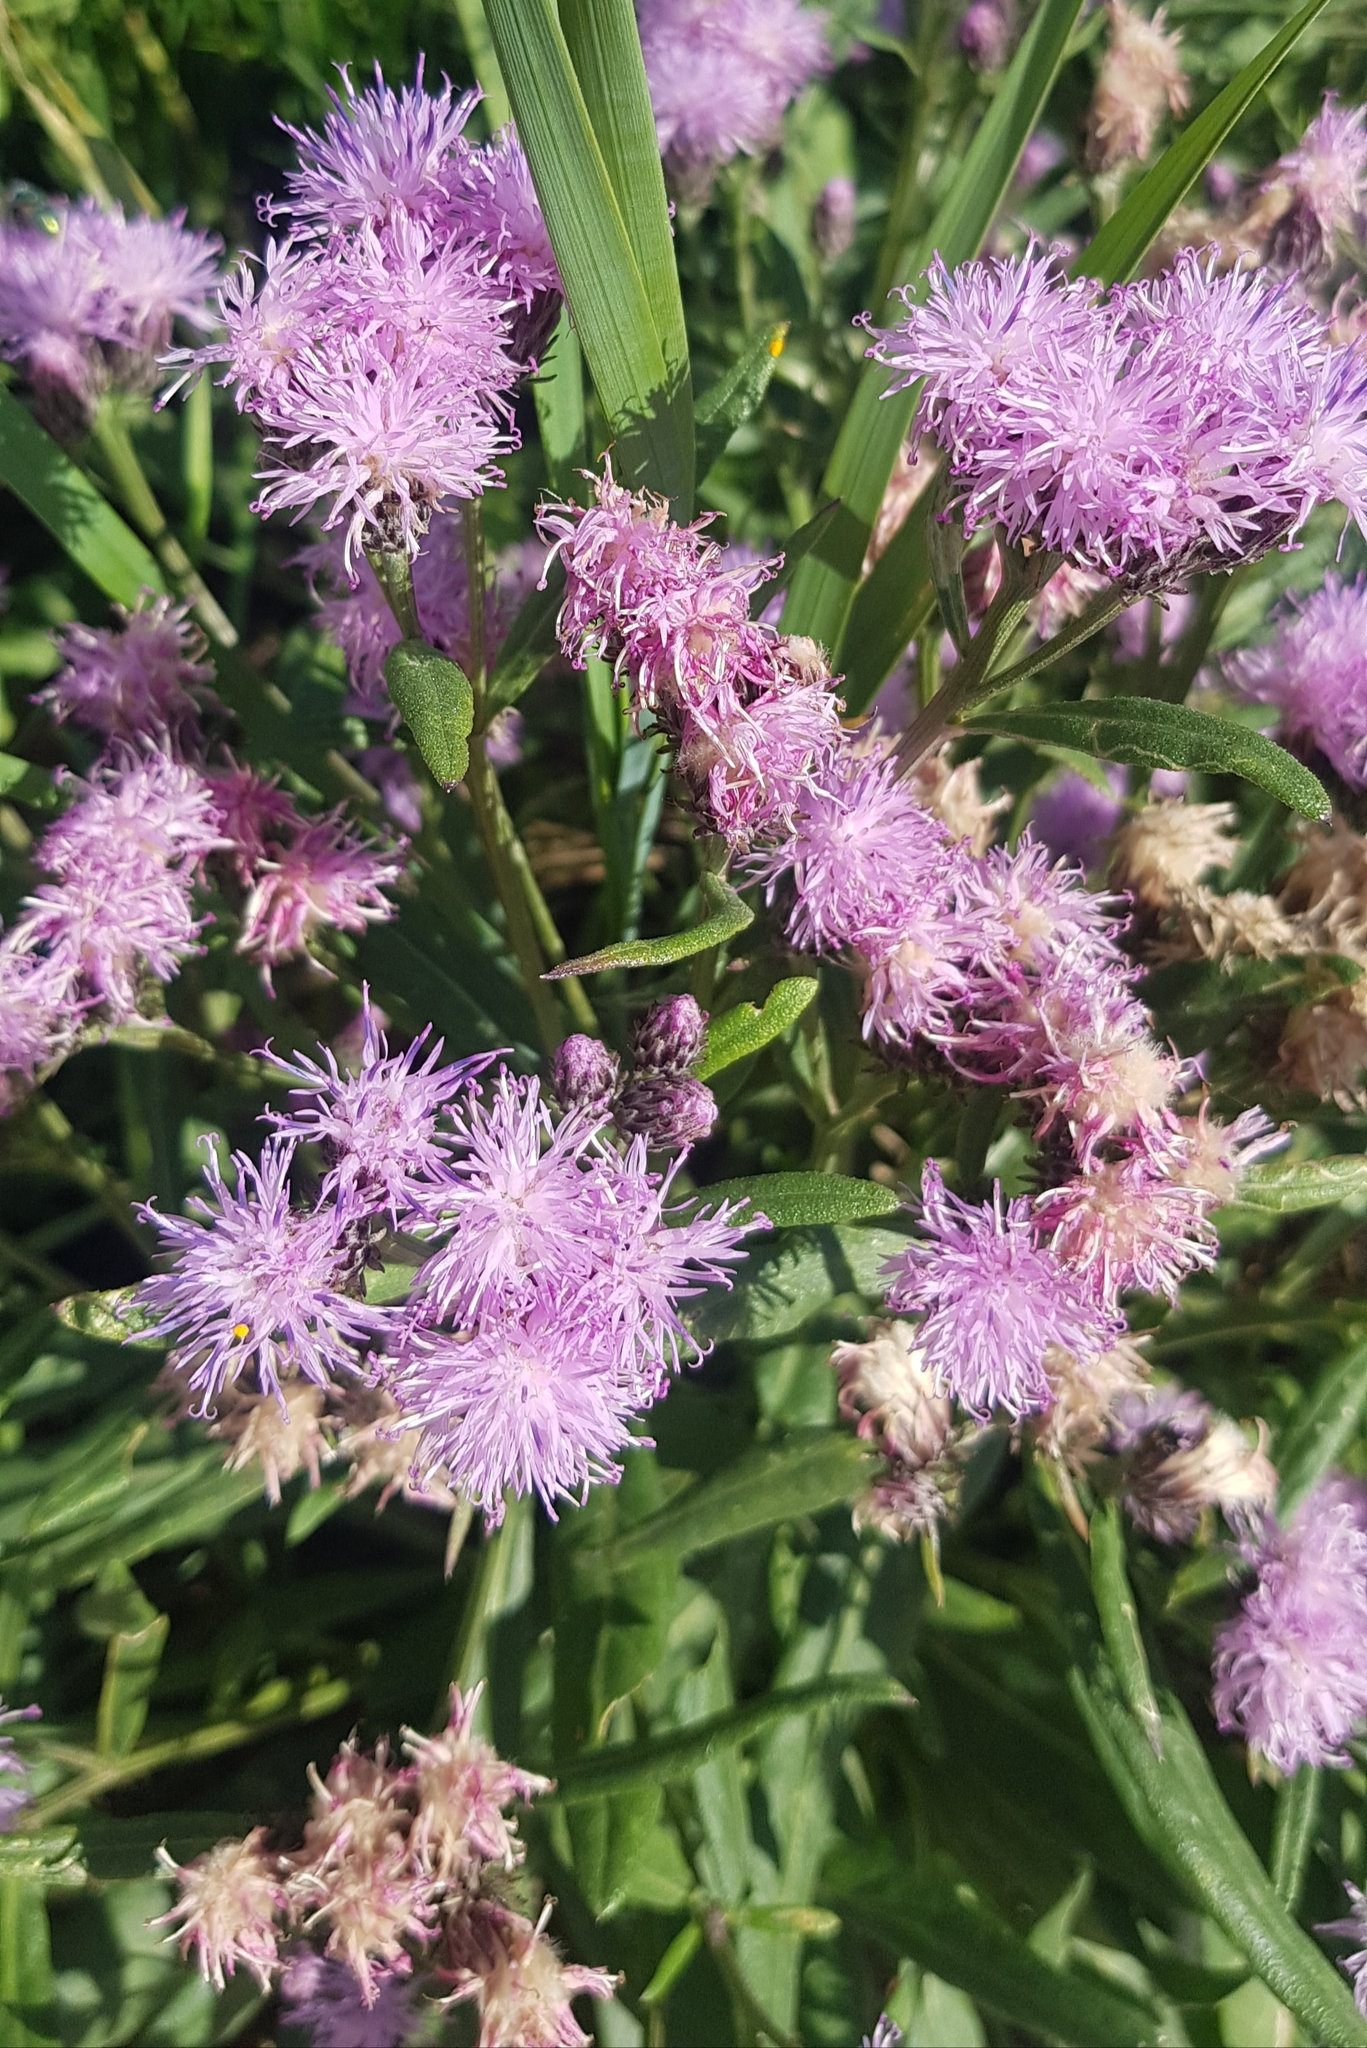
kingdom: Plantae
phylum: Tracheophyta
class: Magnoliopsida
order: Asterales
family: Asteraceae
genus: Saussurea
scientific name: Saussurea salicifolia
